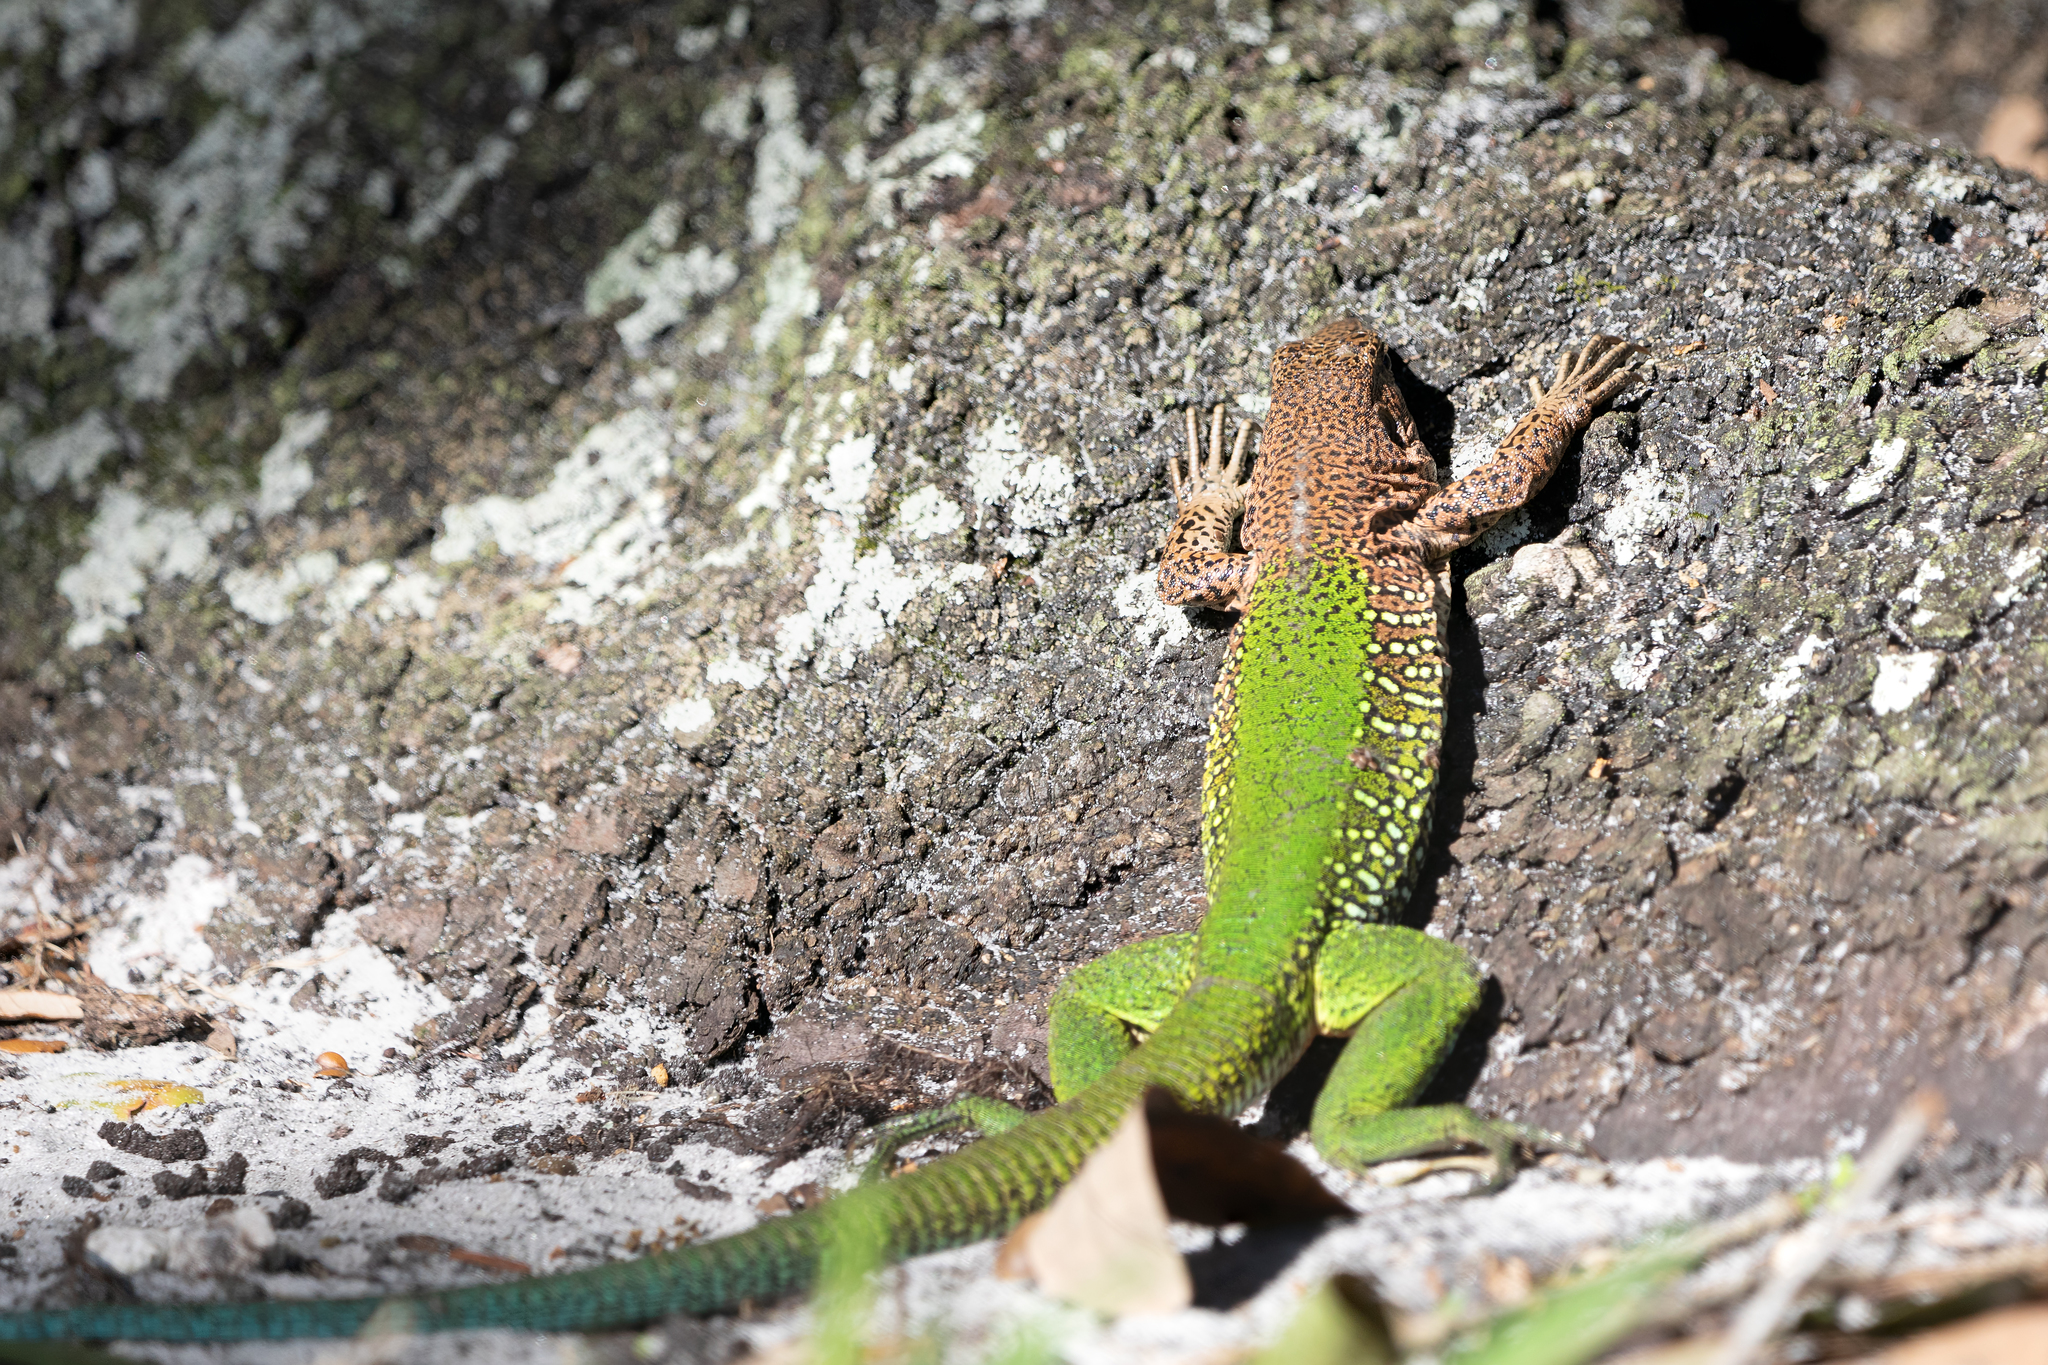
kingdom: Animalia
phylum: Chordata
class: Squamata
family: Teiidae
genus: Ameiva
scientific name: Ameiva ameiva
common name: Giant ameiva
